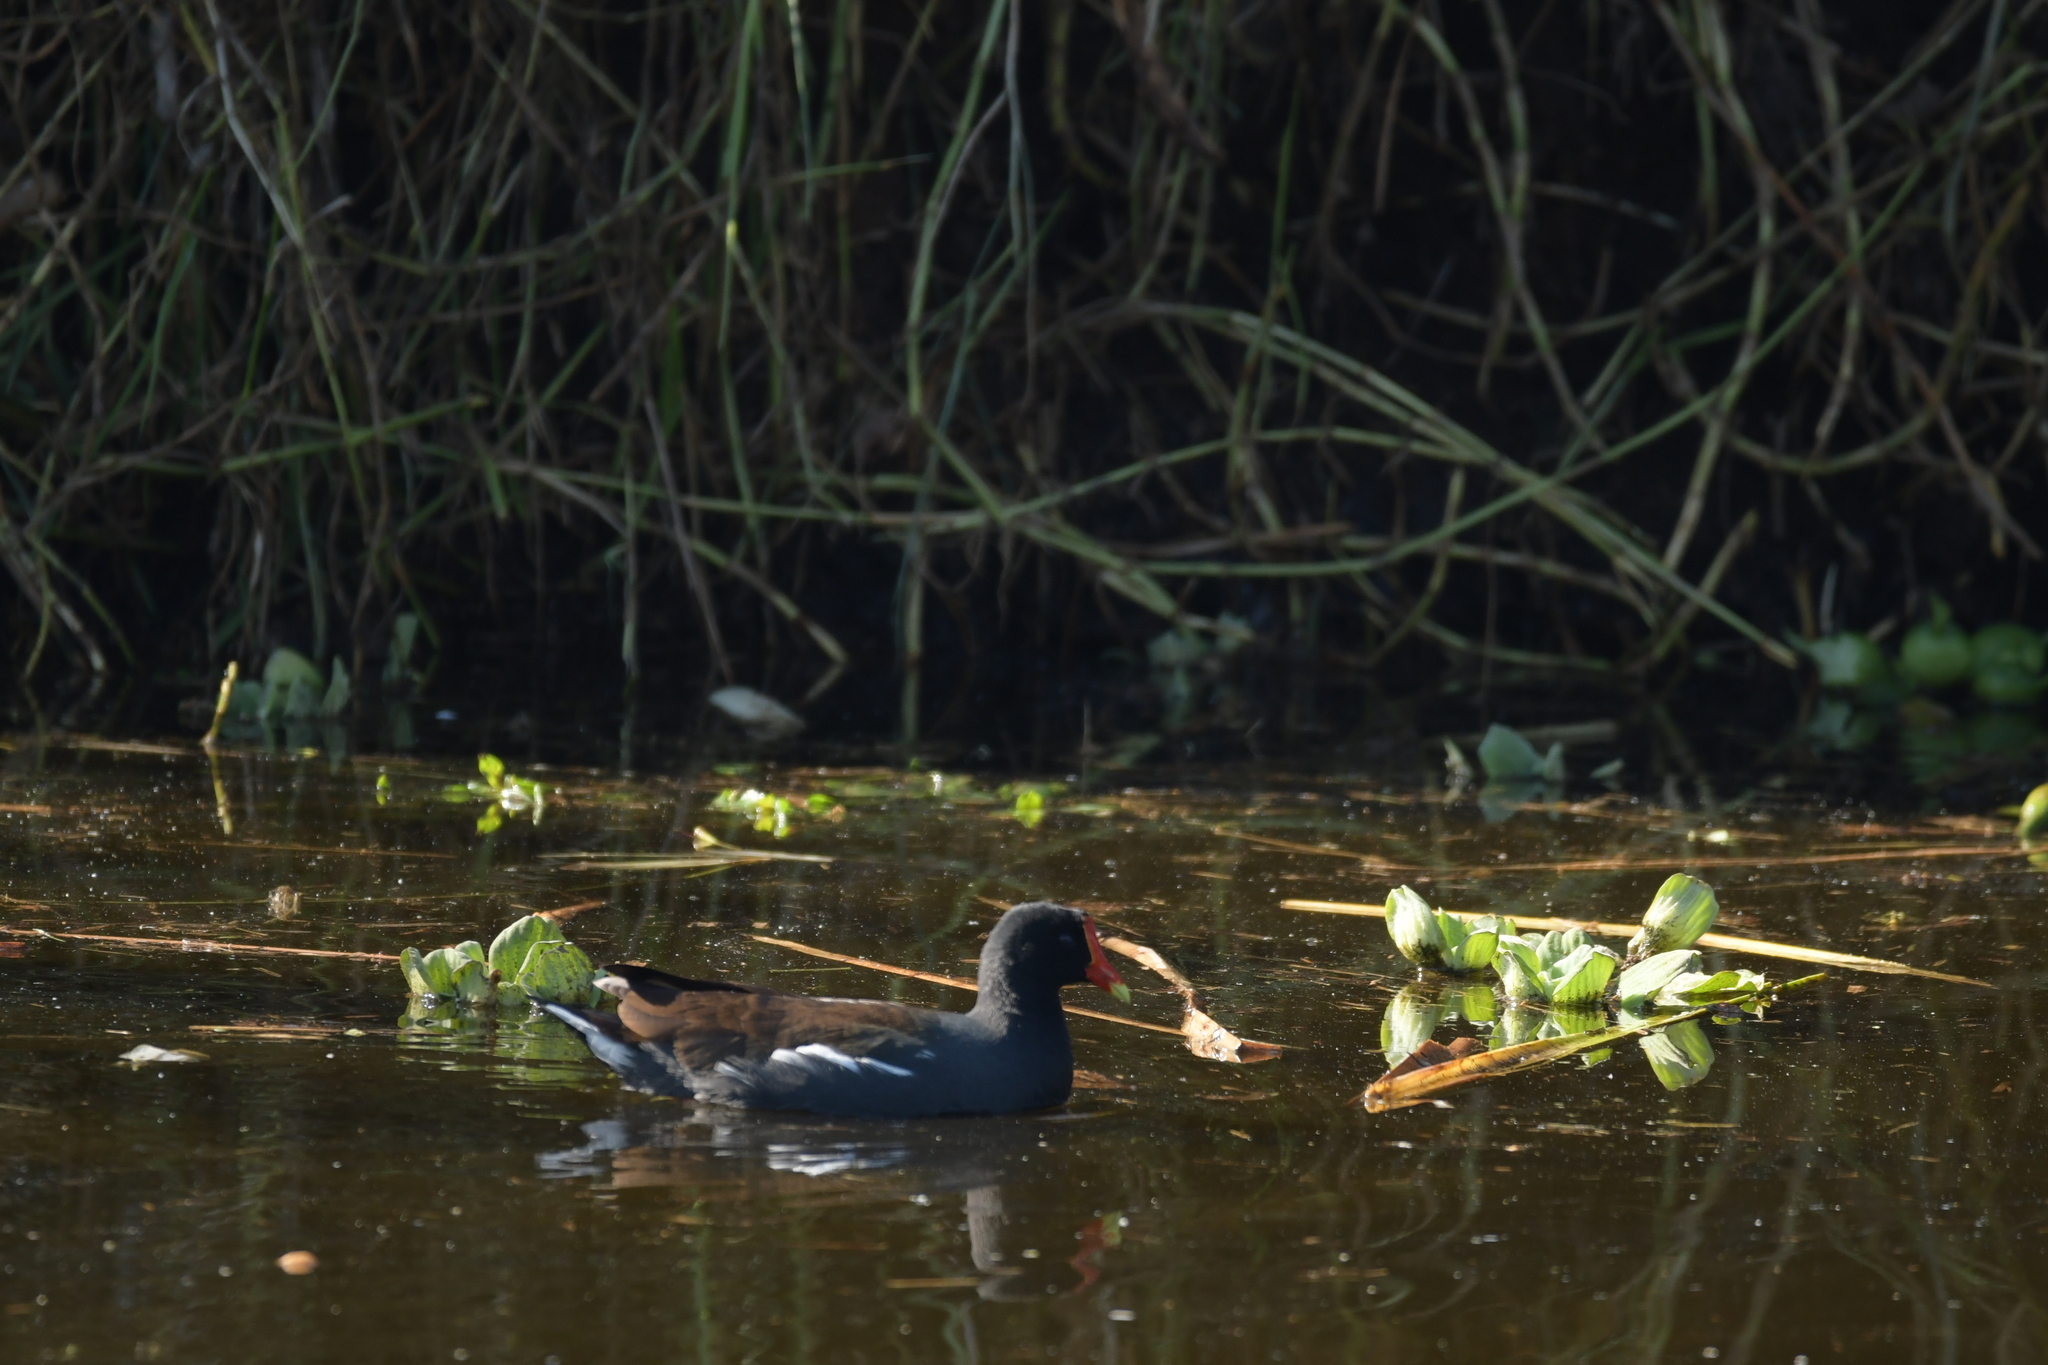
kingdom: Animalia
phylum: Chordata
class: Aves
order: Gruiformes
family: Rallidae
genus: Gallinula
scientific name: Gallinula chloropus
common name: Common moorhen
